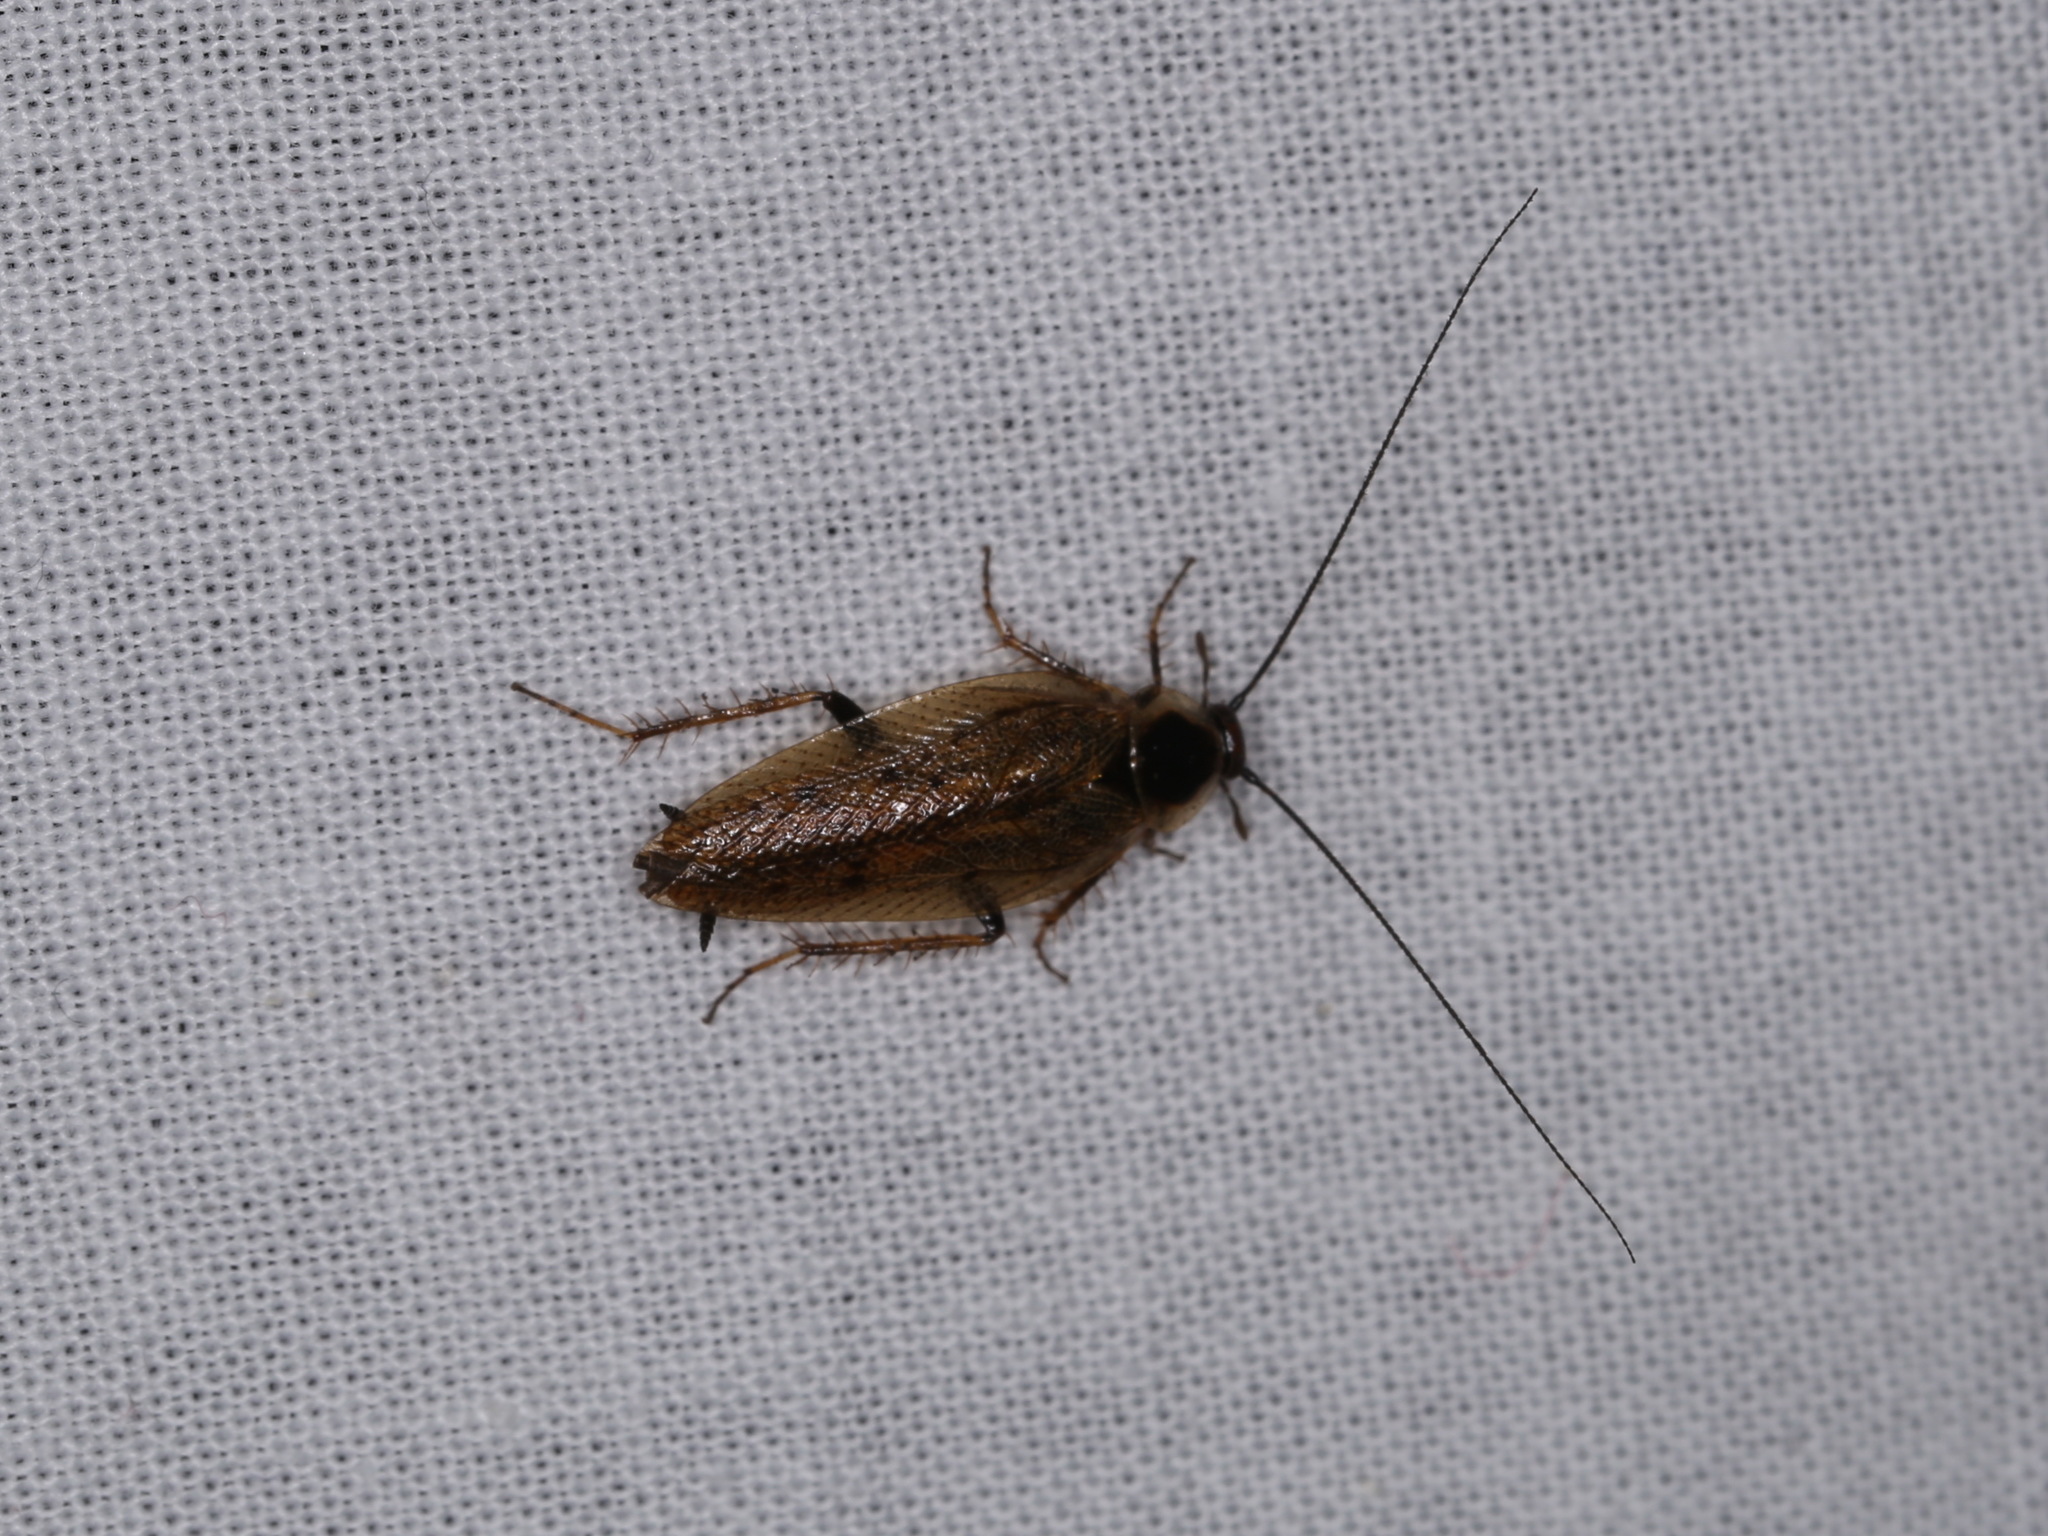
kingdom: Animalia
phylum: Arthropoda
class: Insecta
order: Blattodea
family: Ectobiidae
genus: Ectobius
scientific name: Ectobius lapponicus
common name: Dusky cockroach
